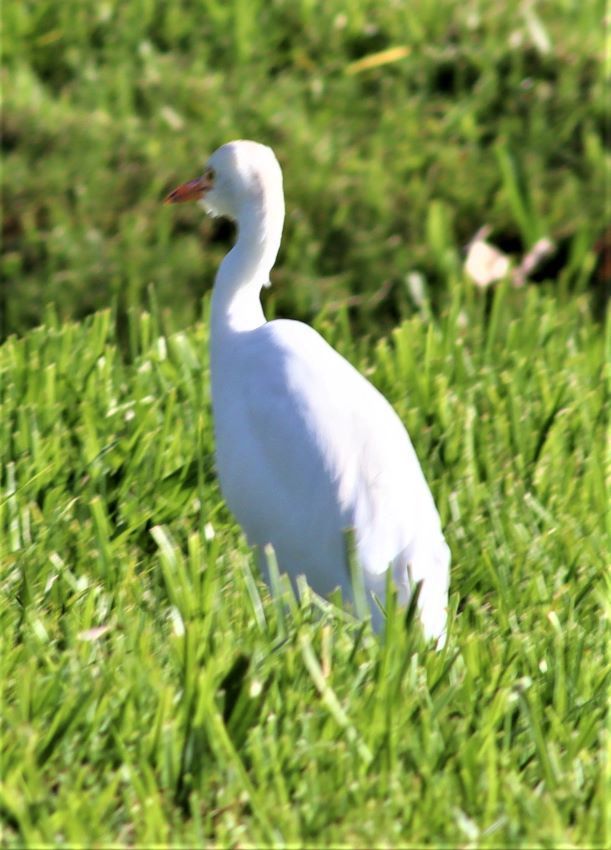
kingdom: Animalia
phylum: Chordata
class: Aves
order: Pelecaniformes
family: Ardeidae
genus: Bubulcus
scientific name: Bubulcus ibis
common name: Cattle egret
